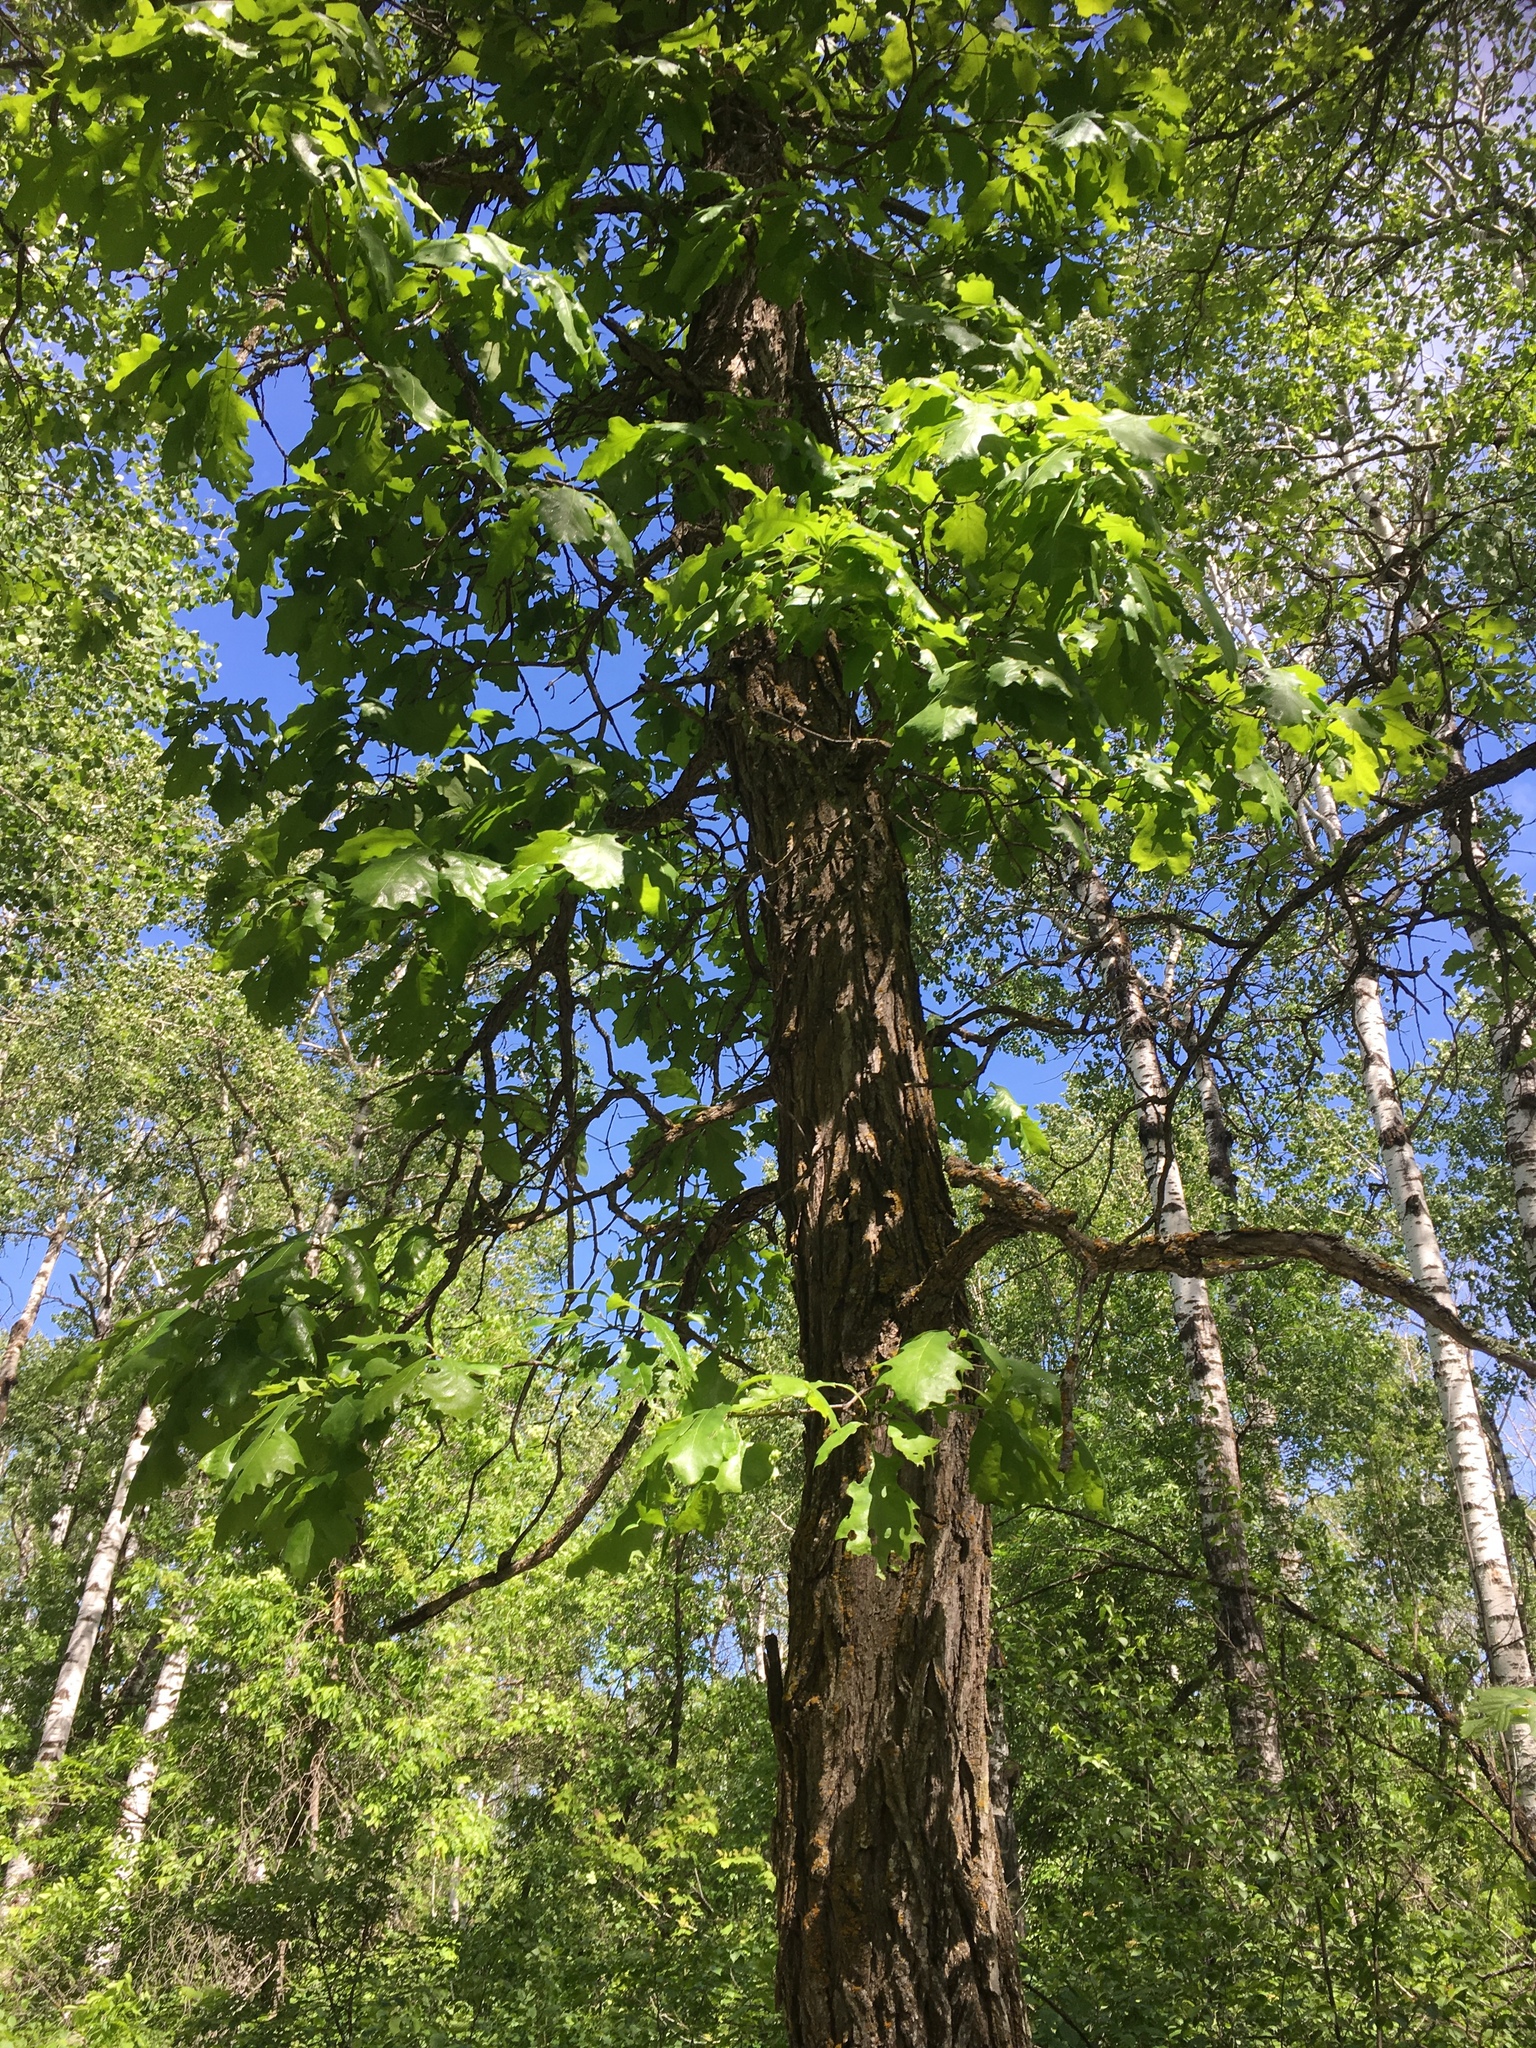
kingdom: Plantae
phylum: Tracheophyta
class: Magnoliopsida
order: Fagales
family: Fagaceae
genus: Quercus
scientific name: Quercus macrocarpa
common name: Bur oak
